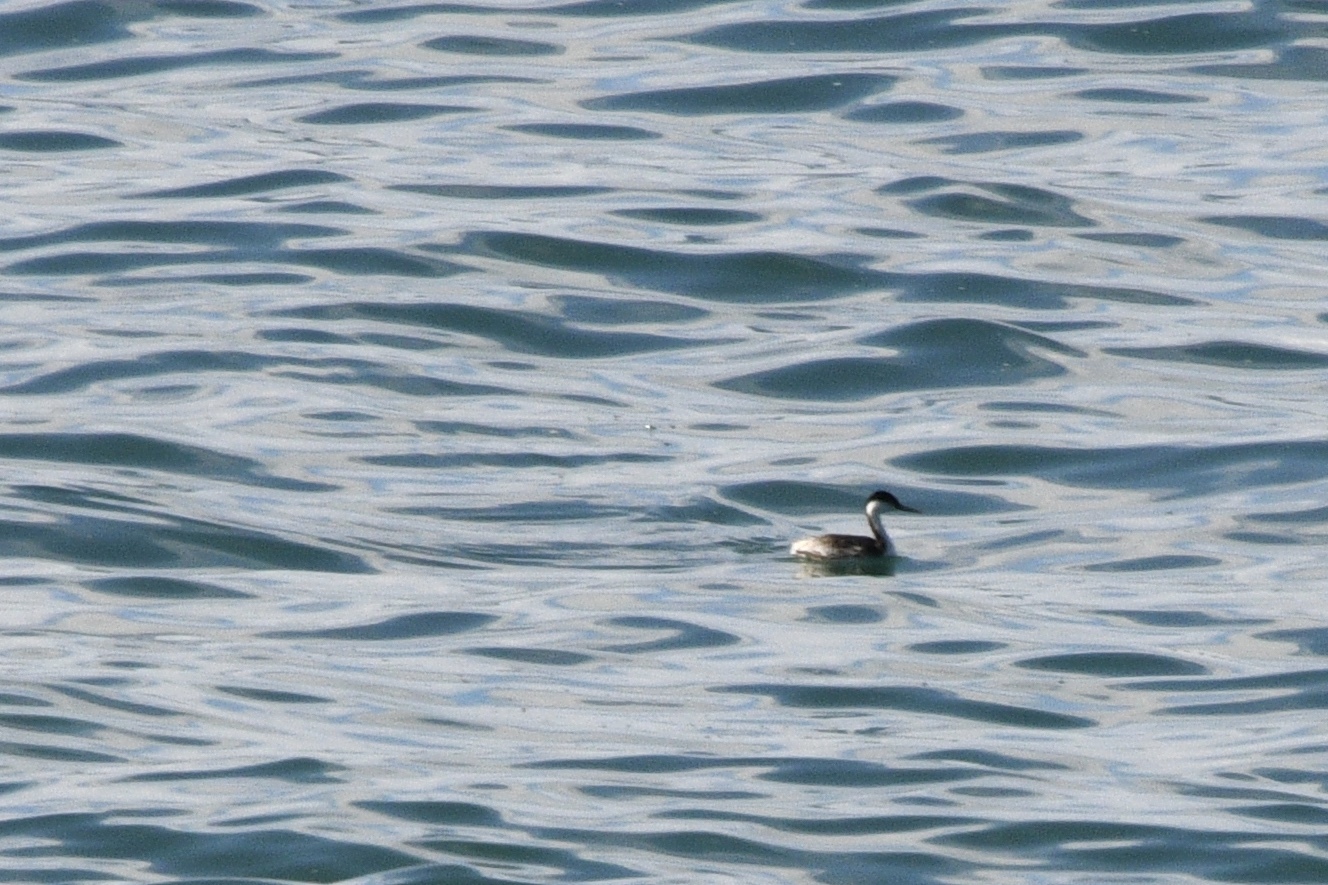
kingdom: Animalia
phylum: Chordata
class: Aves
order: Podicipediformes
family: Podicipedidae
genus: Aechmophorus
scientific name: Aechmophorus occidentalis
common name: Western grebe
